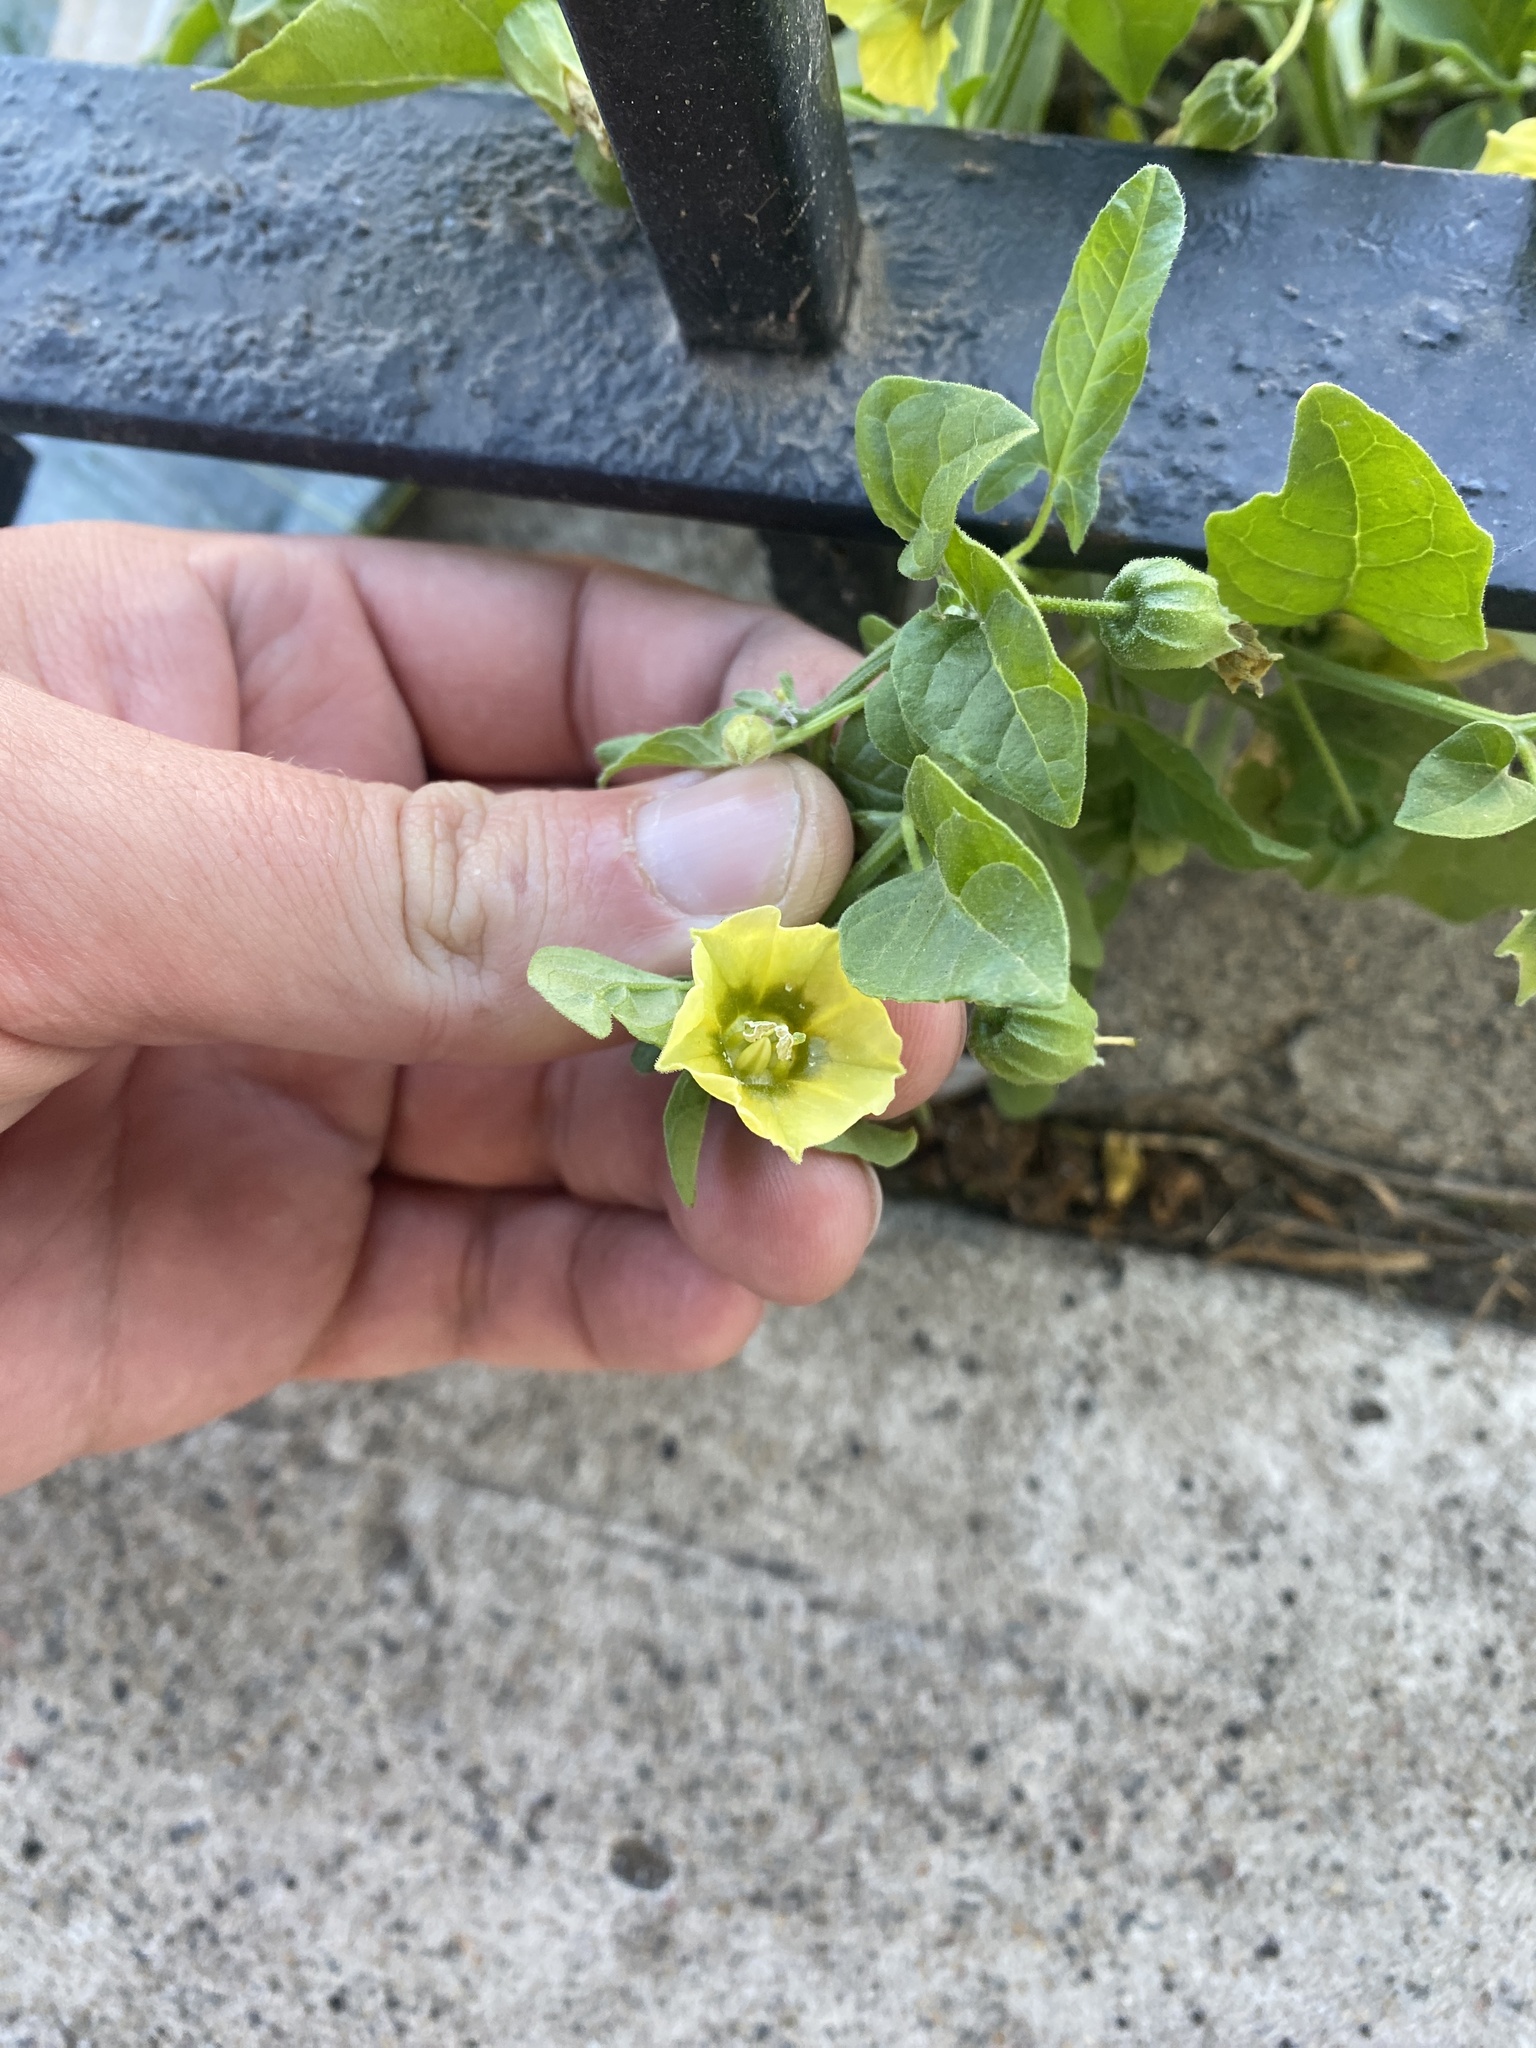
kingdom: Plantae
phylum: Tracheophyta
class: Magnoliopsida
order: Solanales
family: Solanaceae
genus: Physalis
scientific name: Physalis viscosa
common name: Stellate ground-cherry
